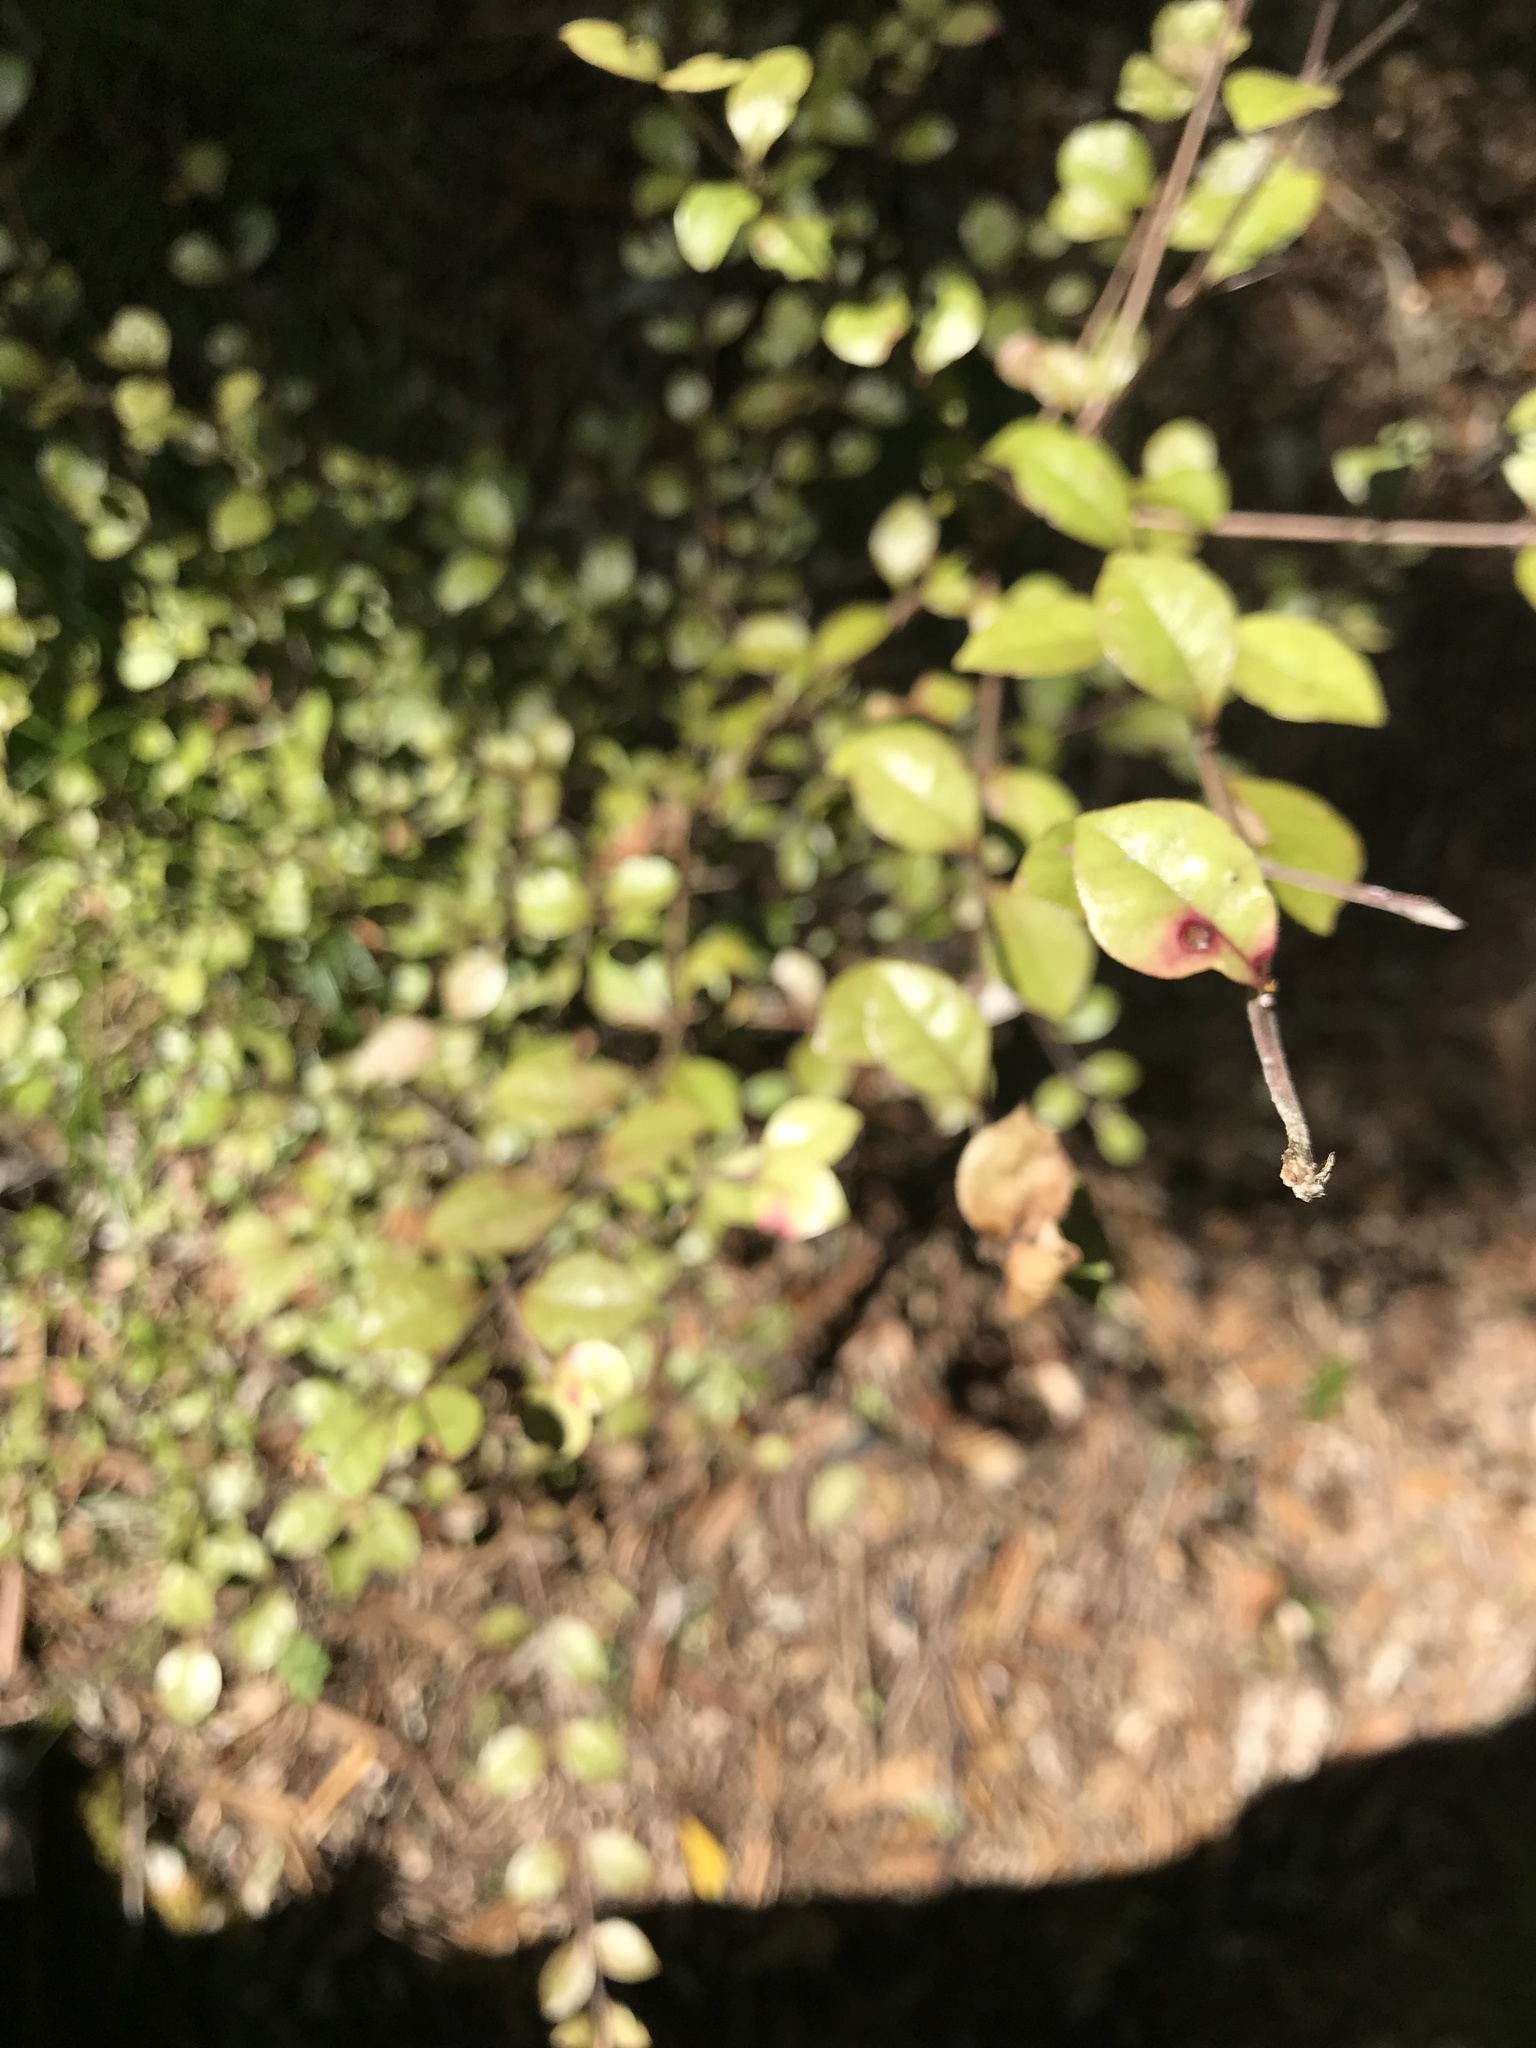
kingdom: Fungi
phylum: Basidiomycota
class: Pucciniomycetes
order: Pucciniales
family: Sphaerophragmiaceae
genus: Austropuccinia
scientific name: Austropuccinia psidii
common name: Myrtle rust
